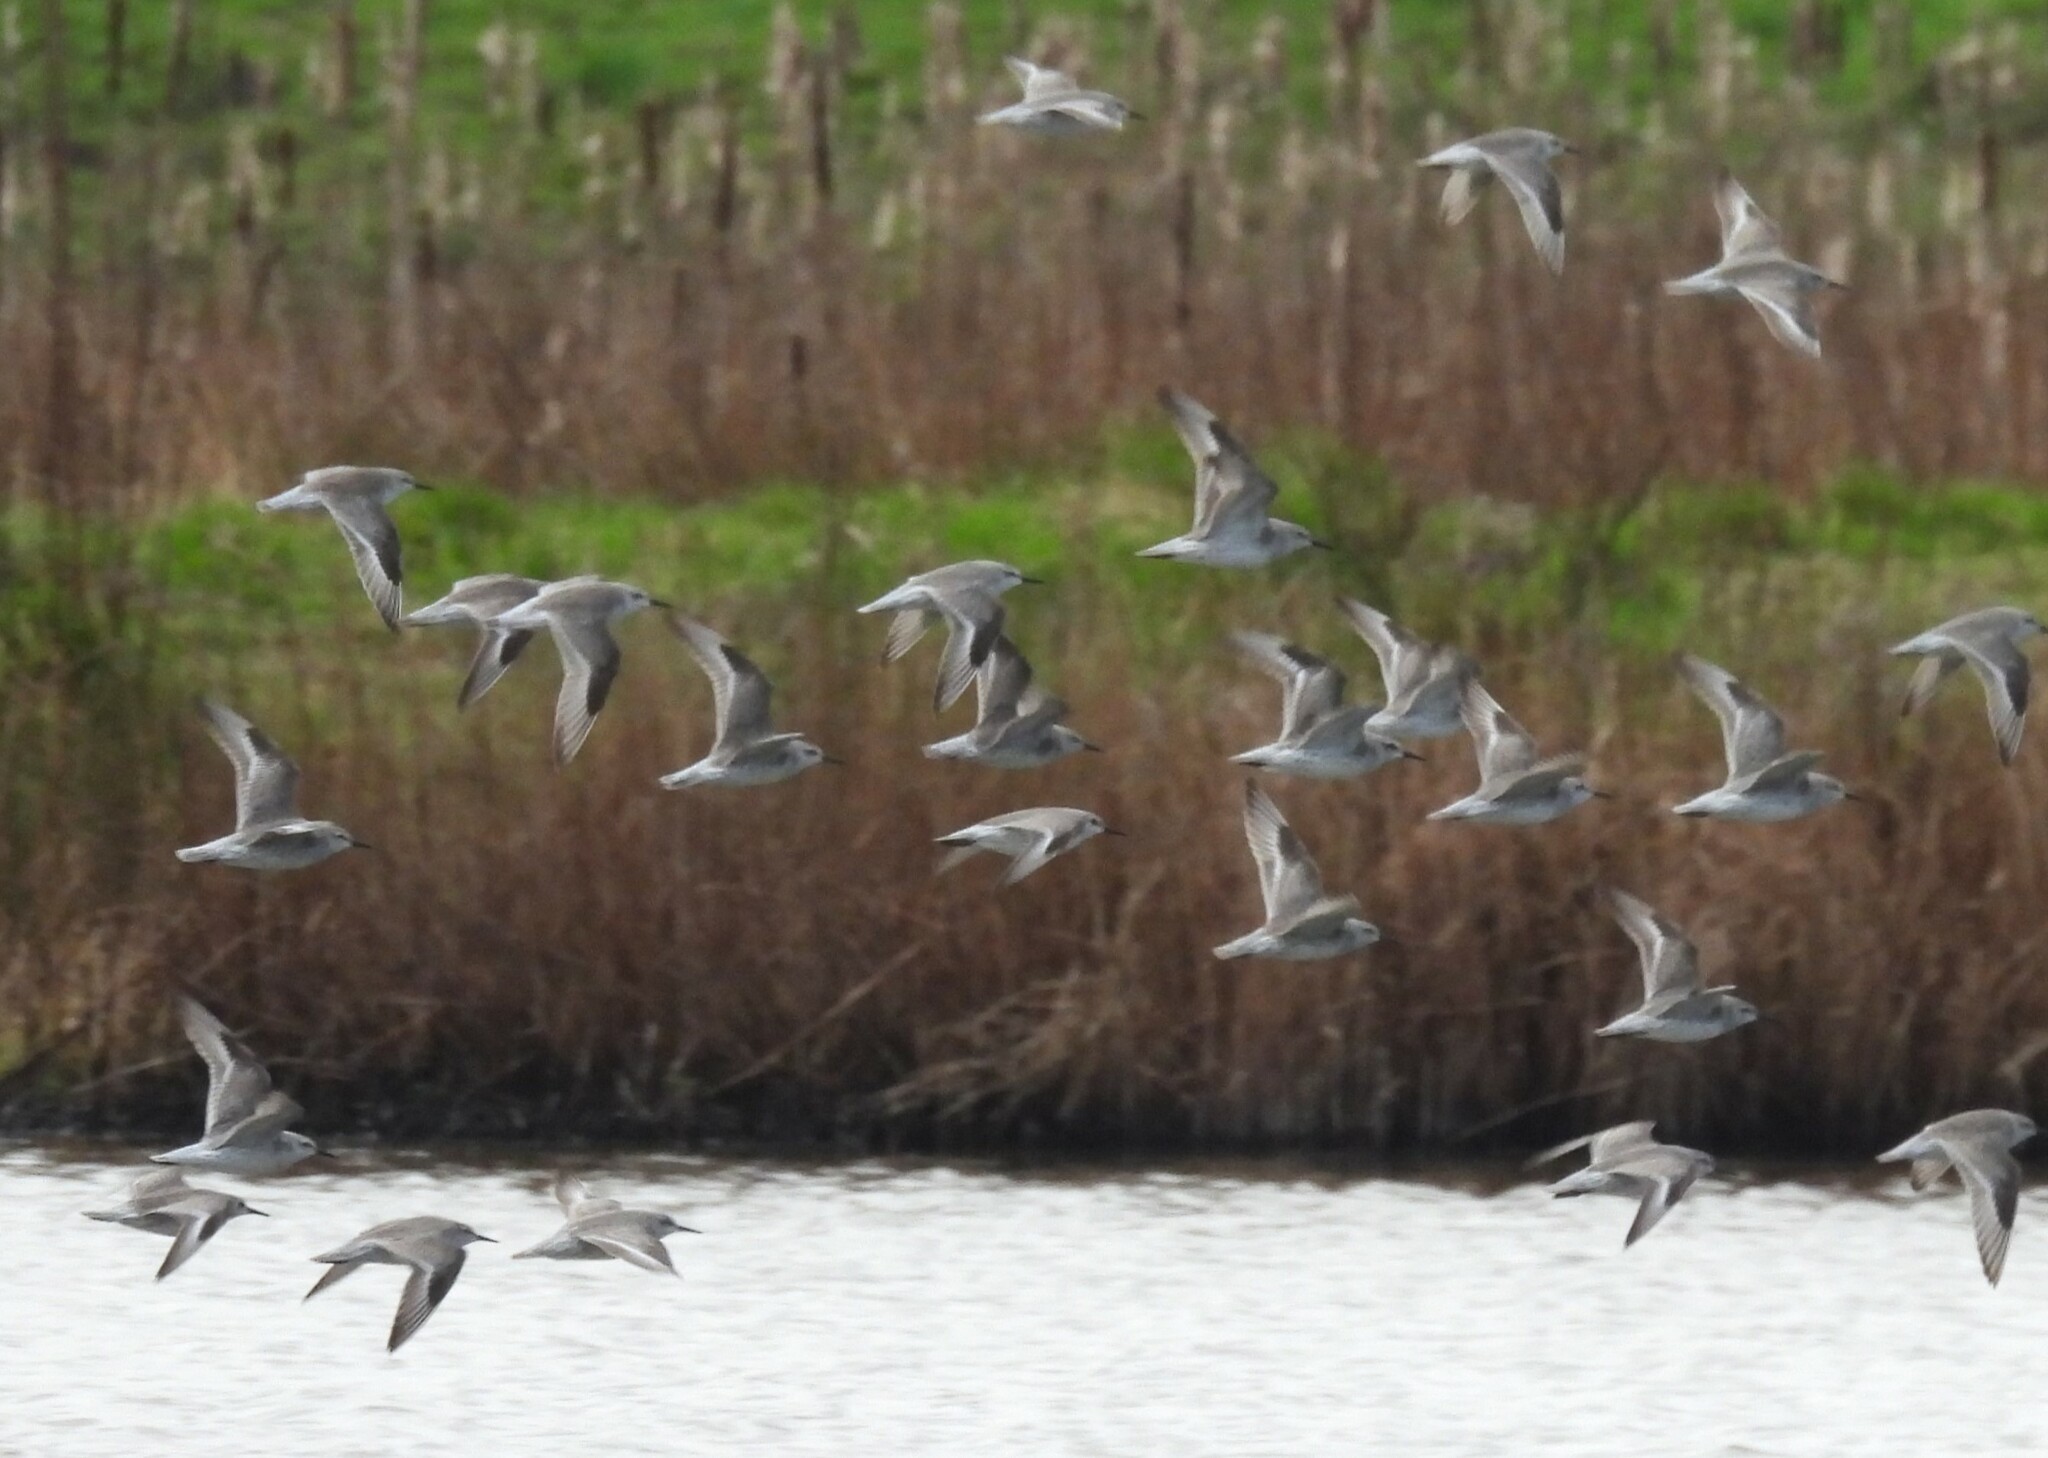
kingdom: Animalia
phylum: Chordata
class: Aves
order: Charadriiformes
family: Scolopacidae
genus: Calidris
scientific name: Calidris canutus
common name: Red knot
